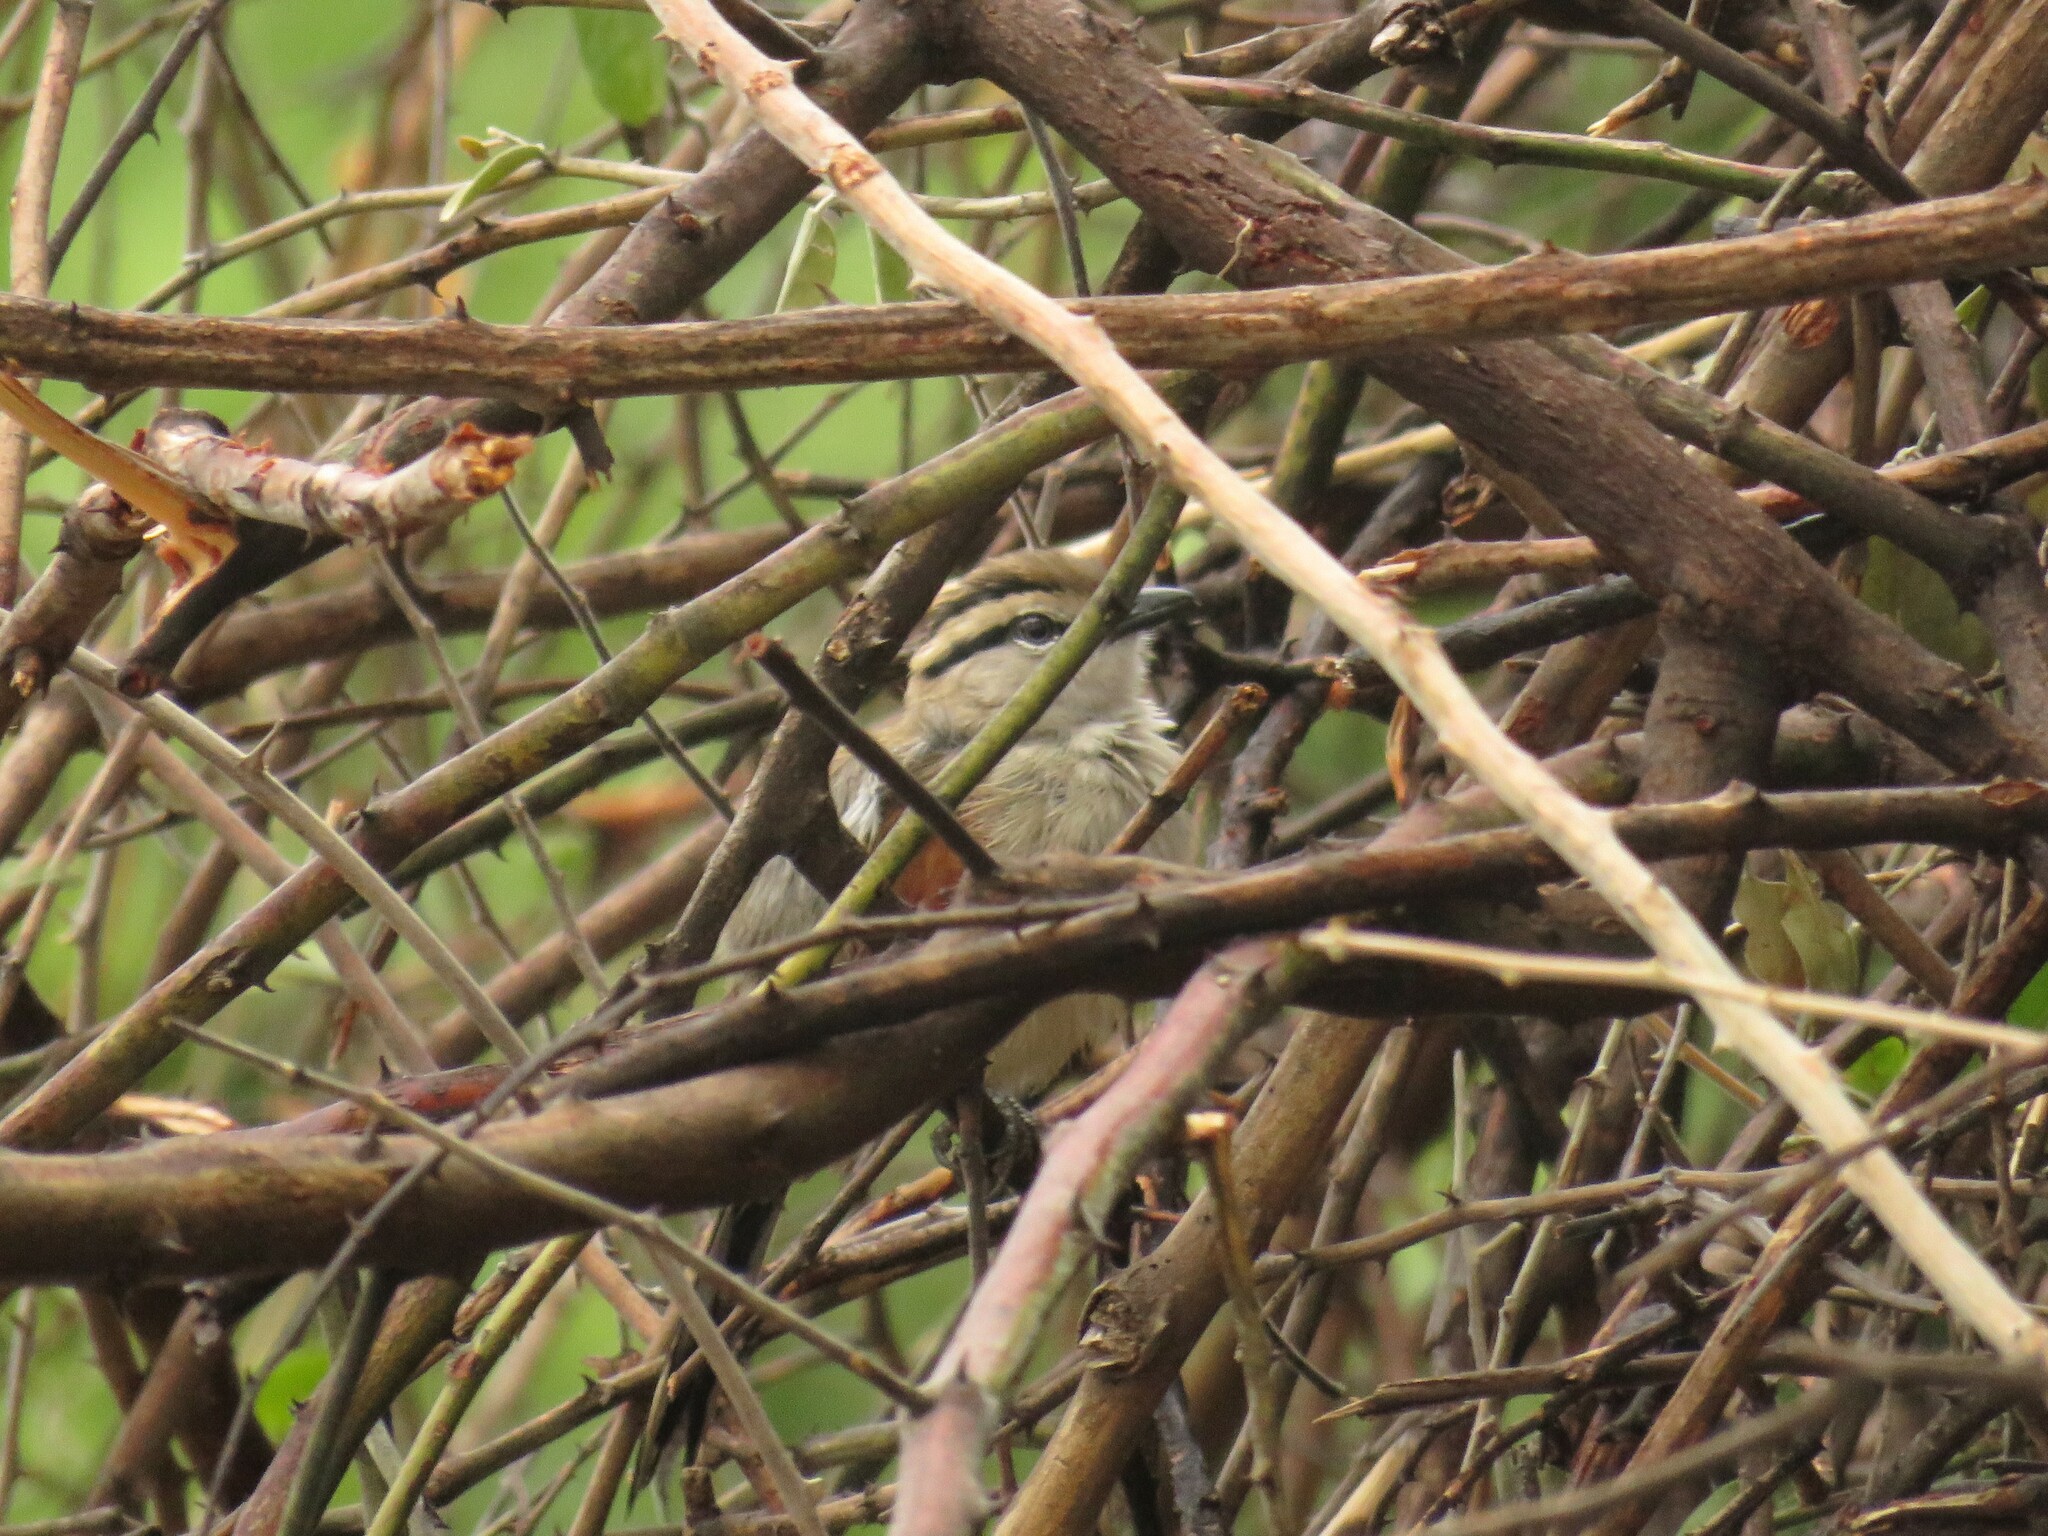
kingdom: Animalia
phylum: Chordata
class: Aves
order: Passeriformes
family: Malaconotidae
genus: Tchagra
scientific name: Tchagra australis
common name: Brown-crowned tchagra
